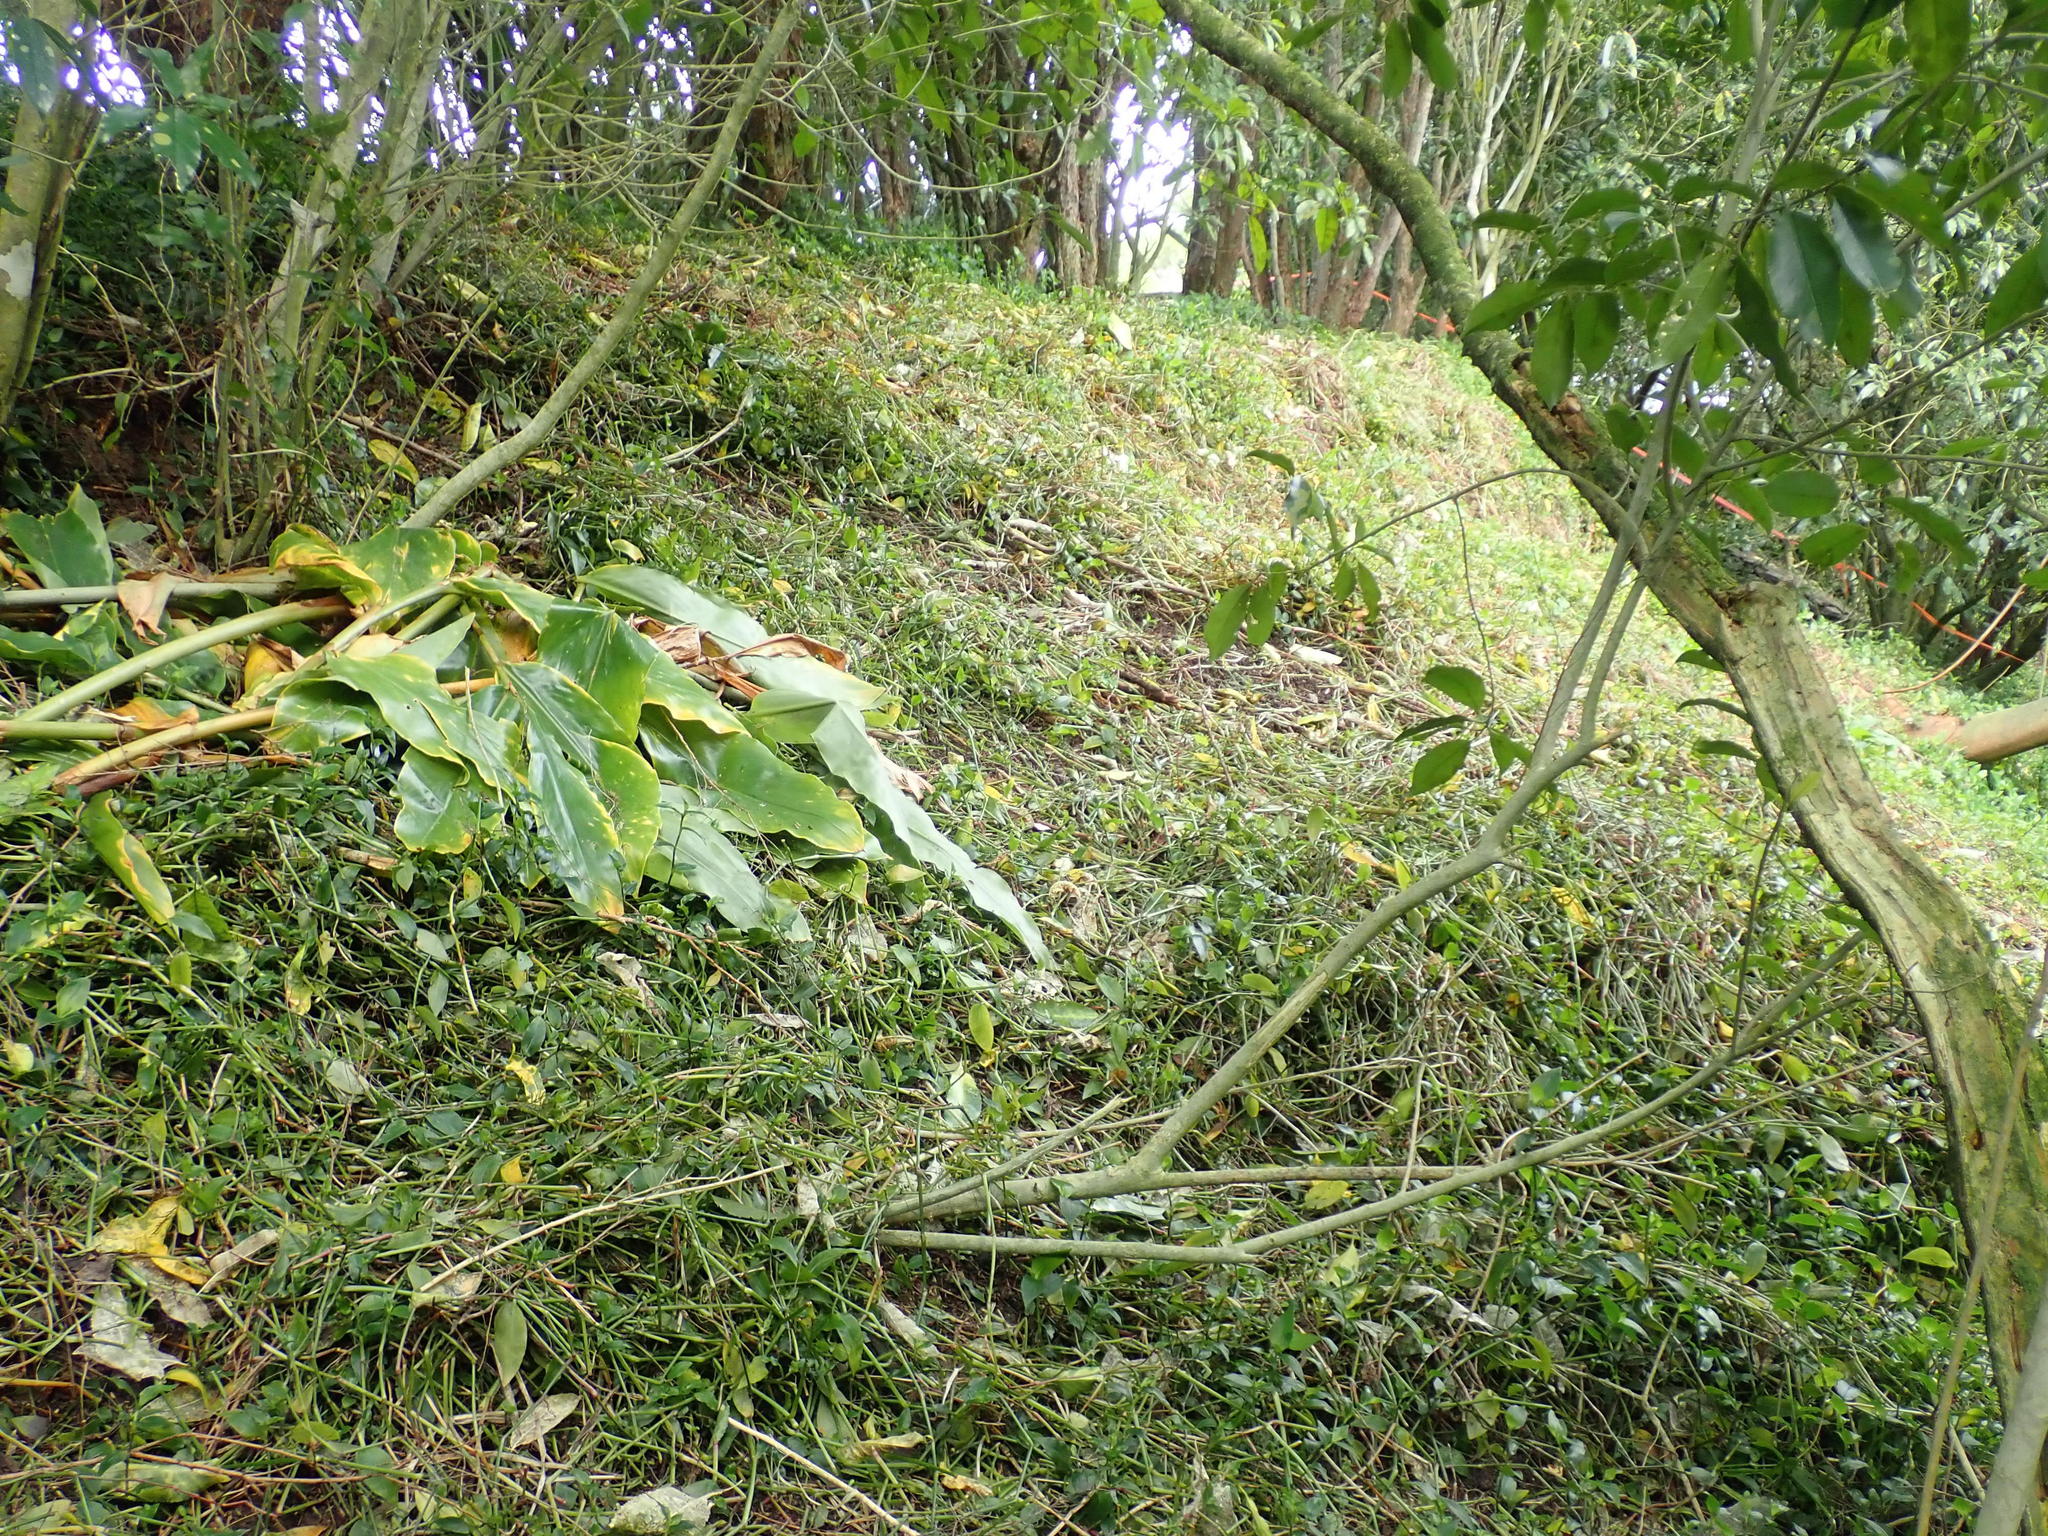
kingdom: Plantae
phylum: Tracheophyta
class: Liliopsida
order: Commelinales
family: Commelinaceae
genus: Tradescantia
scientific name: Tradescantia fluminensis
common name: Wandering-jew
